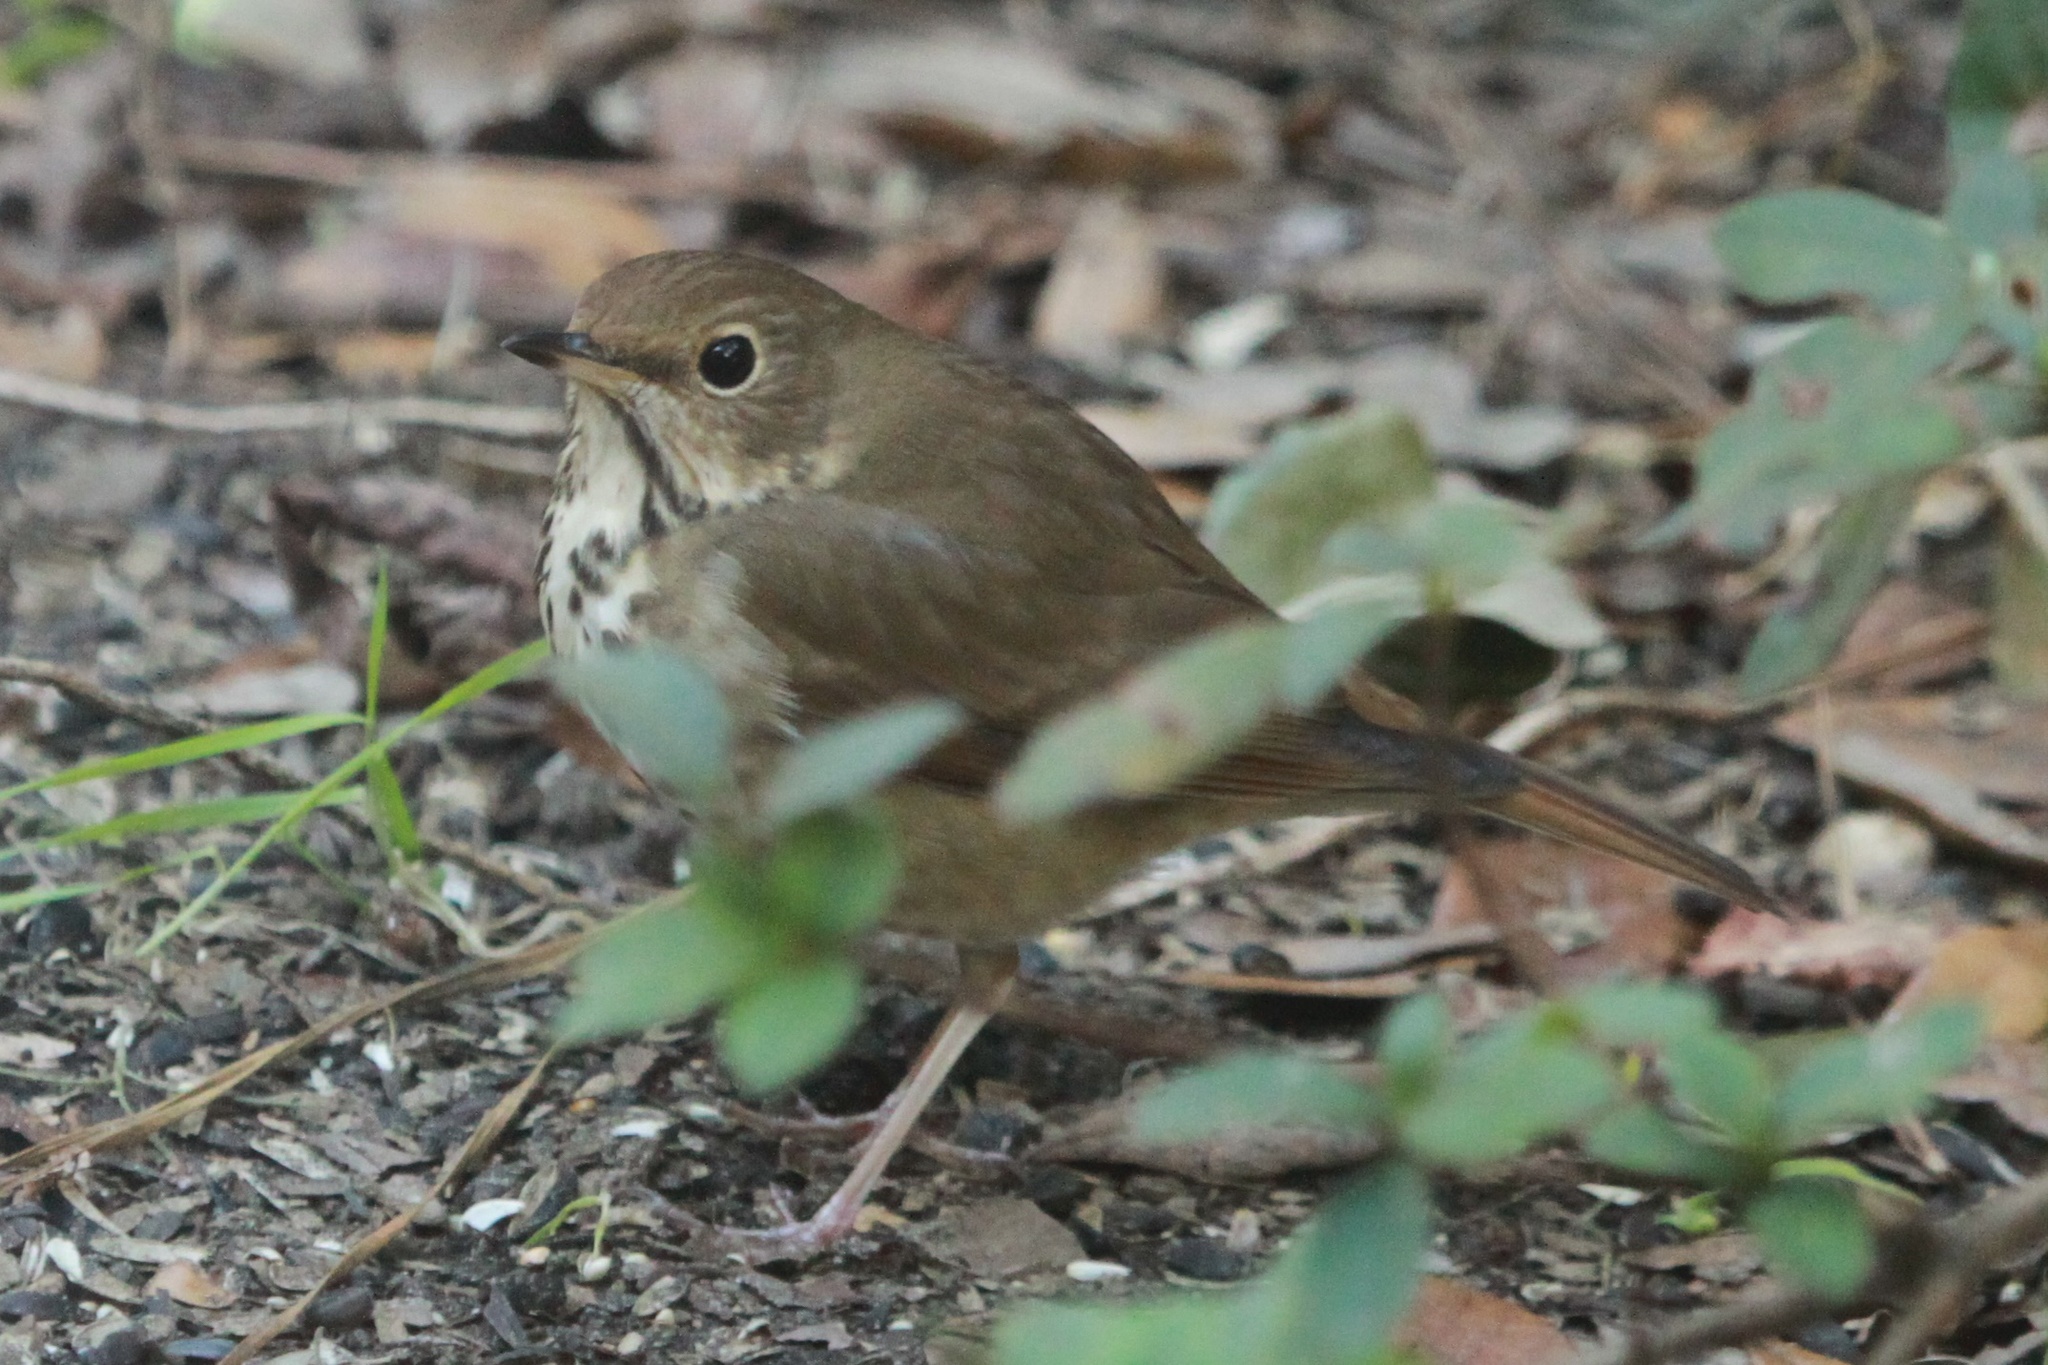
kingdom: Animalia
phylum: Chordata
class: Aves
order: Passeriformes
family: Turdidae
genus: Catharus
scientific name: Catharus guttatus
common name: Hermit thrush
